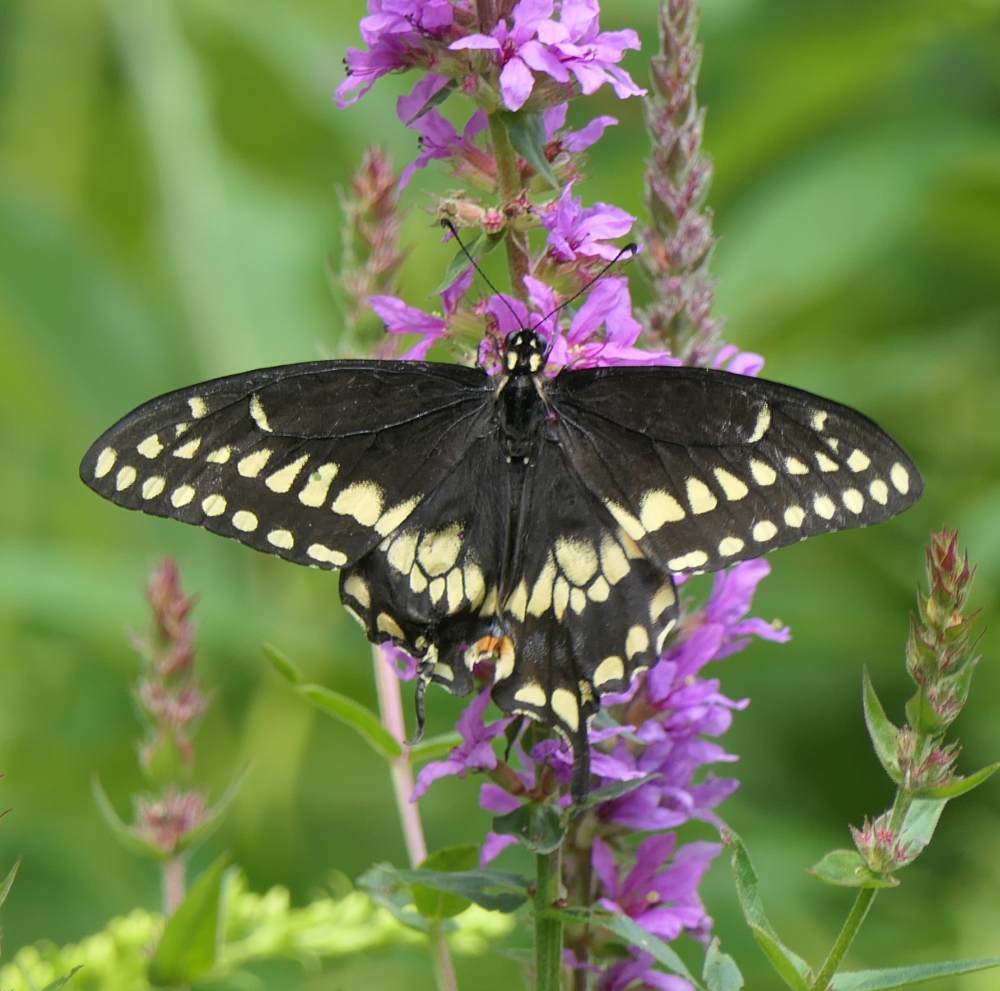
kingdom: Animalia
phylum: Arthropoda
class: Insecta
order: Lepidoptera
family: Papilionidae
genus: Papilio
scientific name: Papilio polyxenes
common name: Black swallowtail
